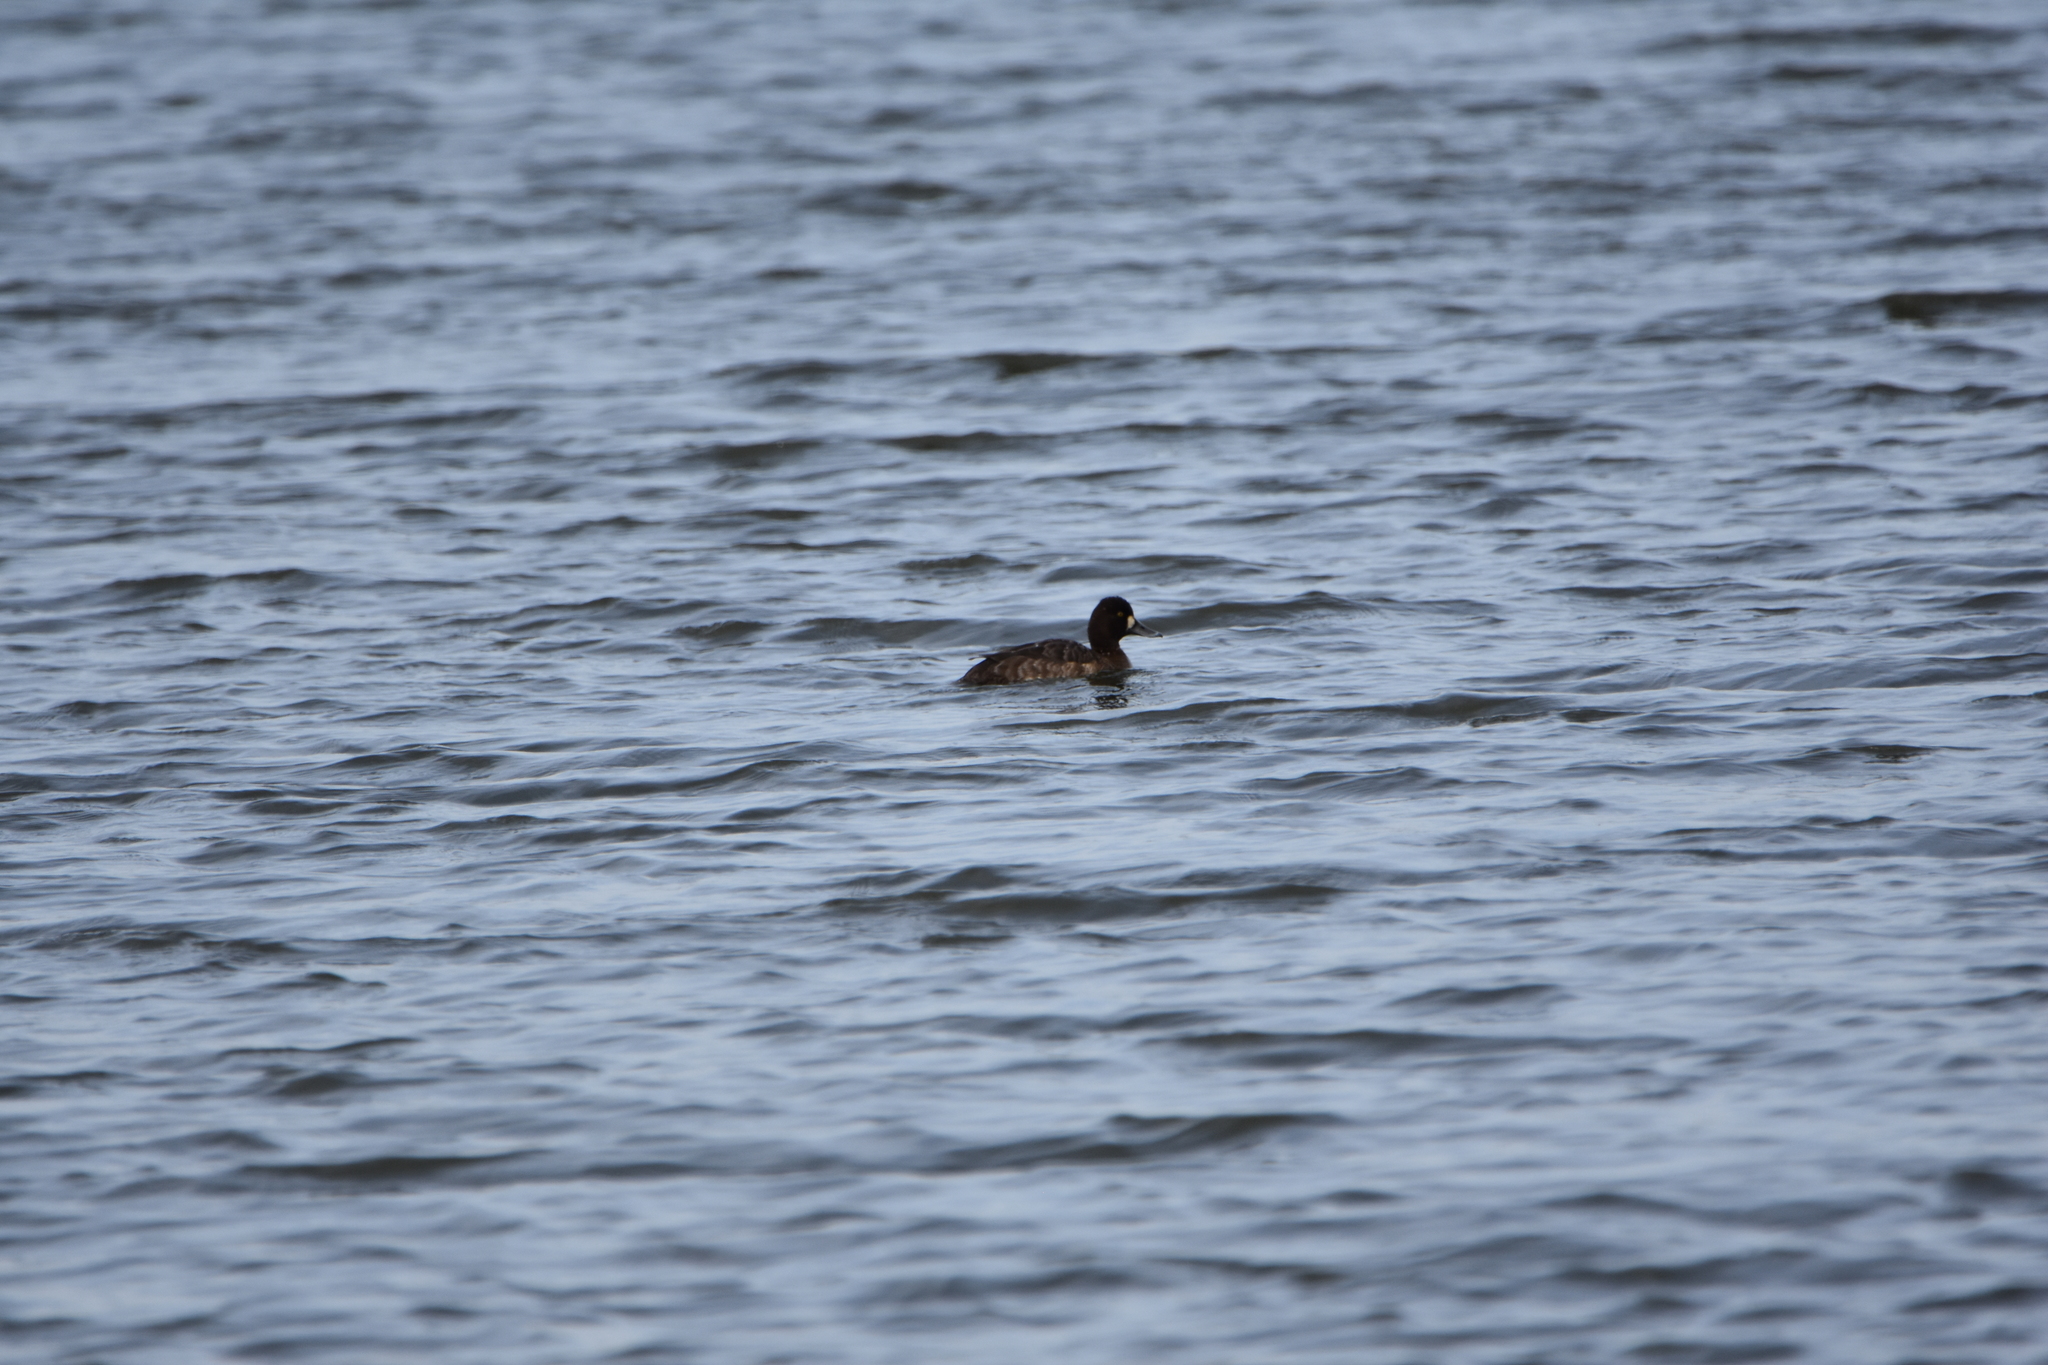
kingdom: Animalia
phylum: Chordata
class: Aves
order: Anseriformes
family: Anatidae
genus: Aythya
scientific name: Aythya affinis
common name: Lesser scaup
